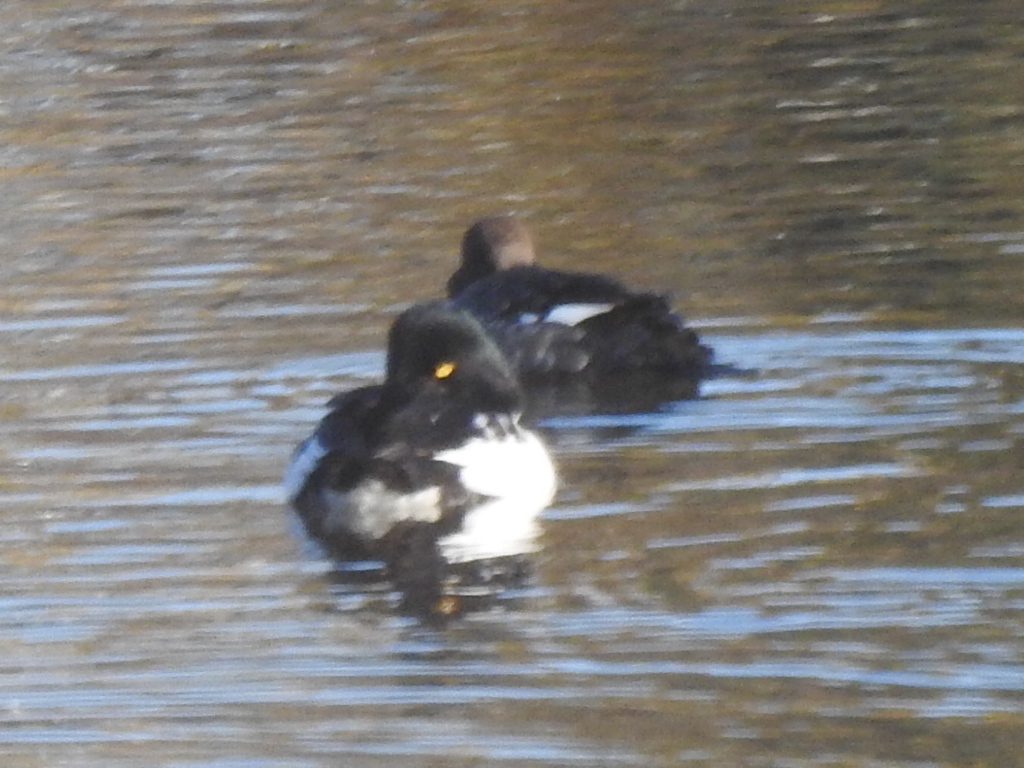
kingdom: Animalia
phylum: Chordata
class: Aves
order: Anseriformes
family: Anatidae
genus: Bucephala
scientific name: Bucephala clangula
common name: Common goldeneye
